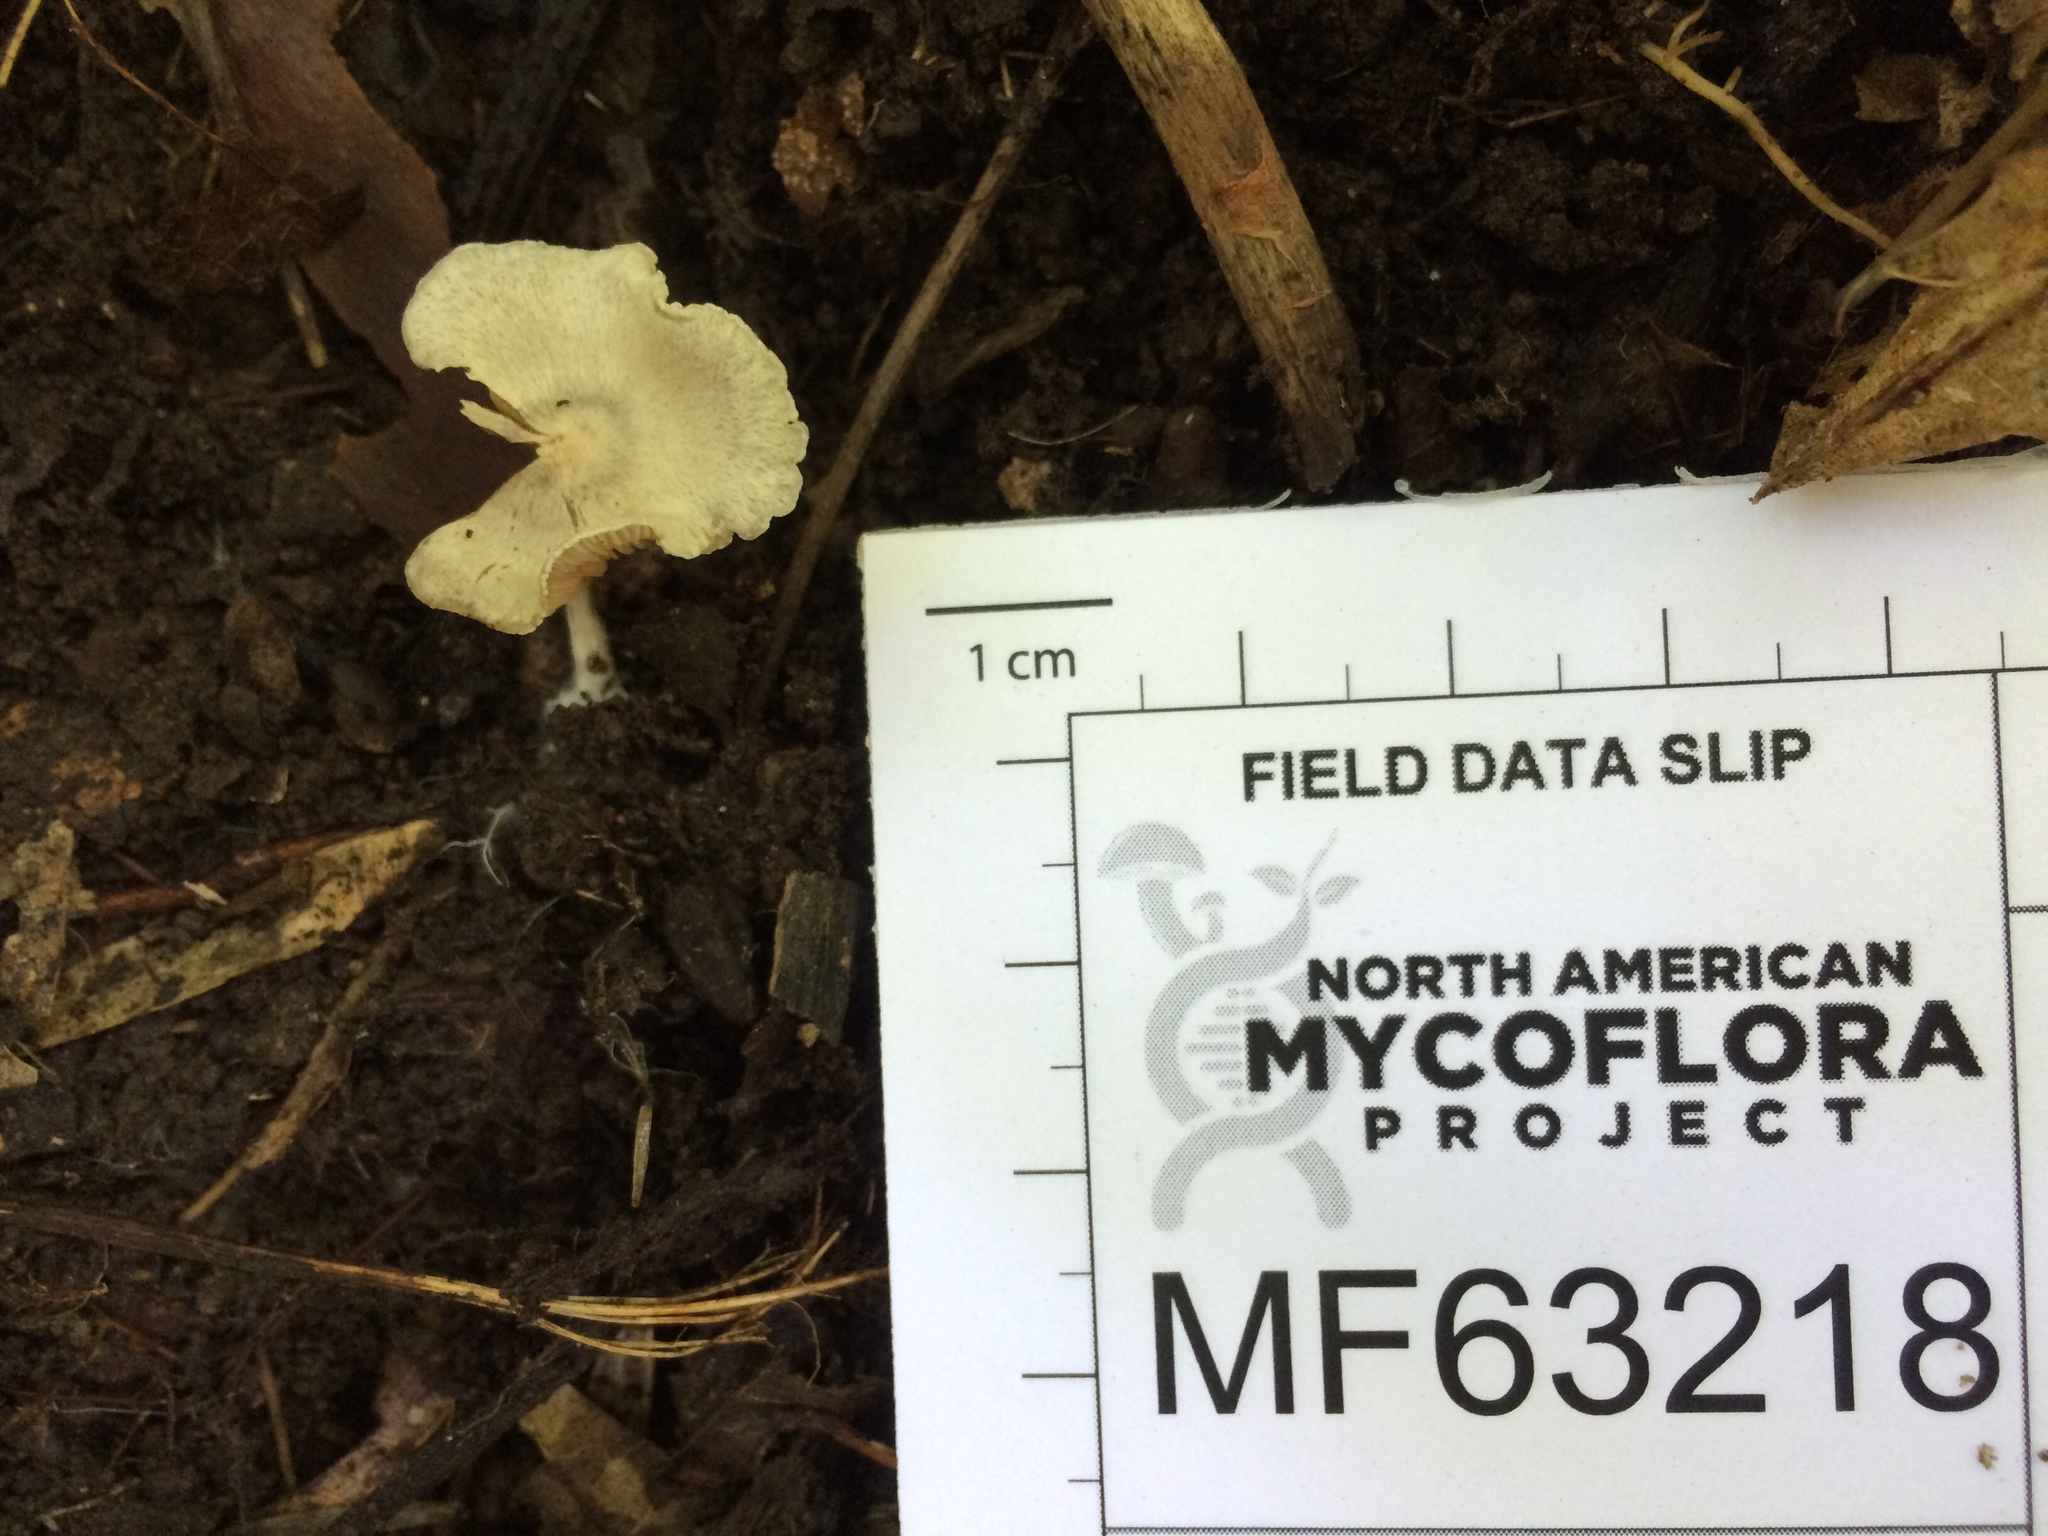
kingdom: Fungi
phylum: Basidiomycota
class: Agaricomycetes
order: Agaricales
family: Entolomataceae
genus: Entoloma
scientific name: Entoloma byssisedum
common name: Oysterling pinkgill
